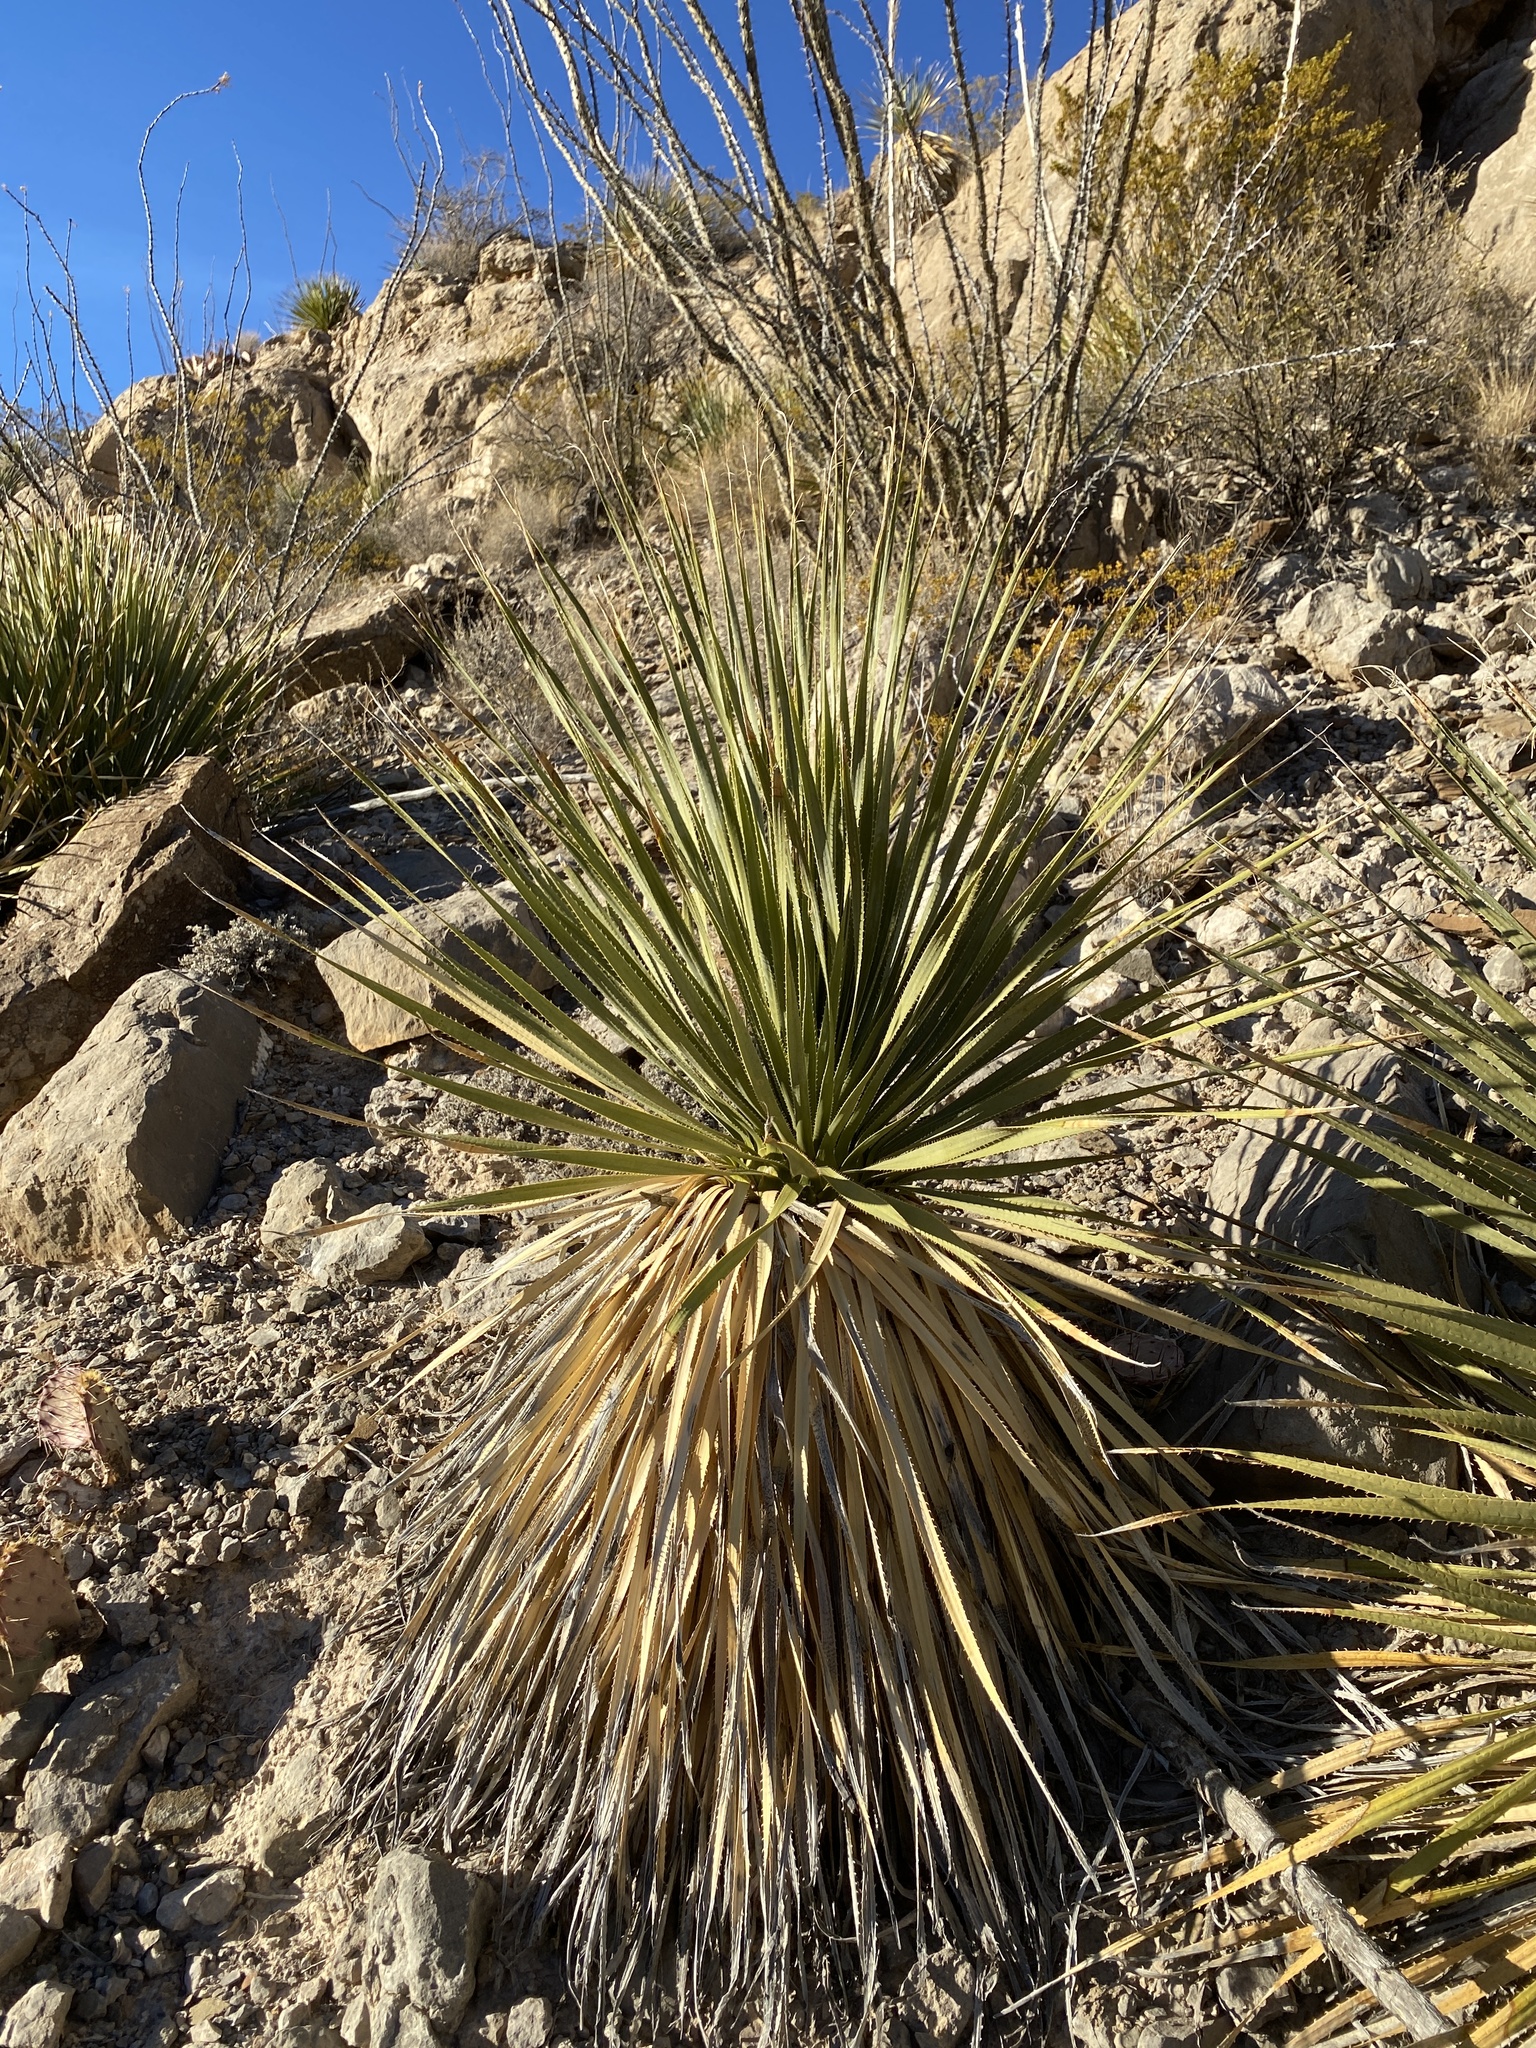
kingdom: Plantae
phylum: Tracheophyta
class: Liliopsida
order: Asparagales
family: Asparagaceae
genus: Dasylirion
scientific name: Dasylirion wheeleri
